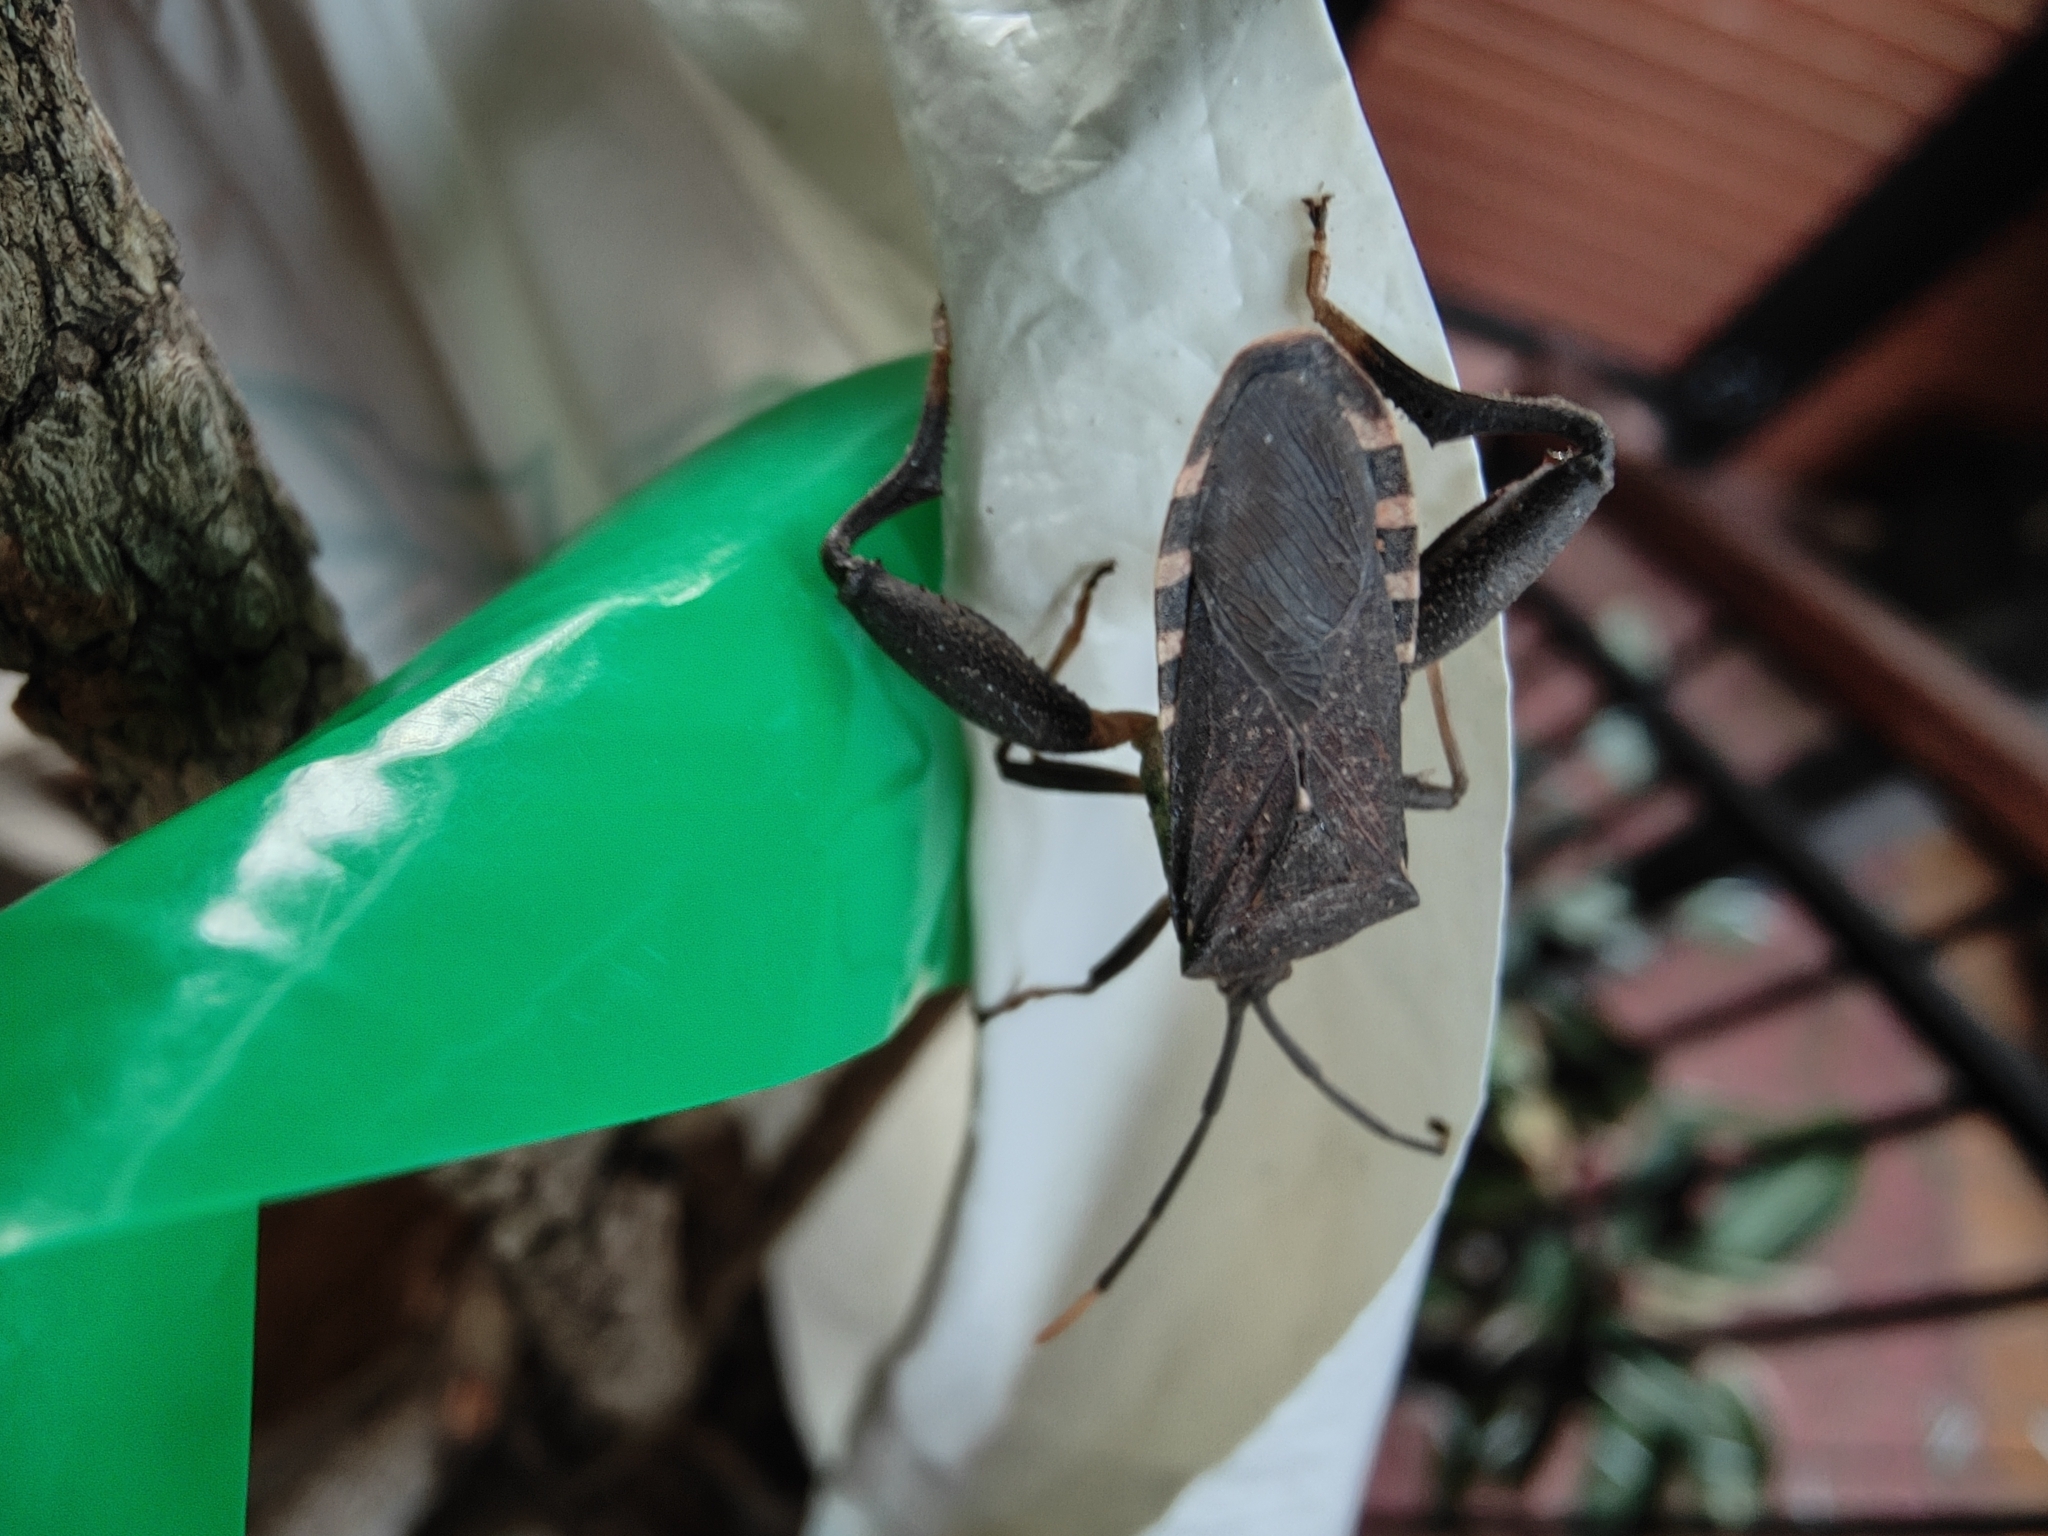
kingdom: Animalia
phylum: Arthropoda
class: Insecta
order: Hemiptera
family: Coreidae
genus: Amorbus
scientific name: Amorbus atomarius
